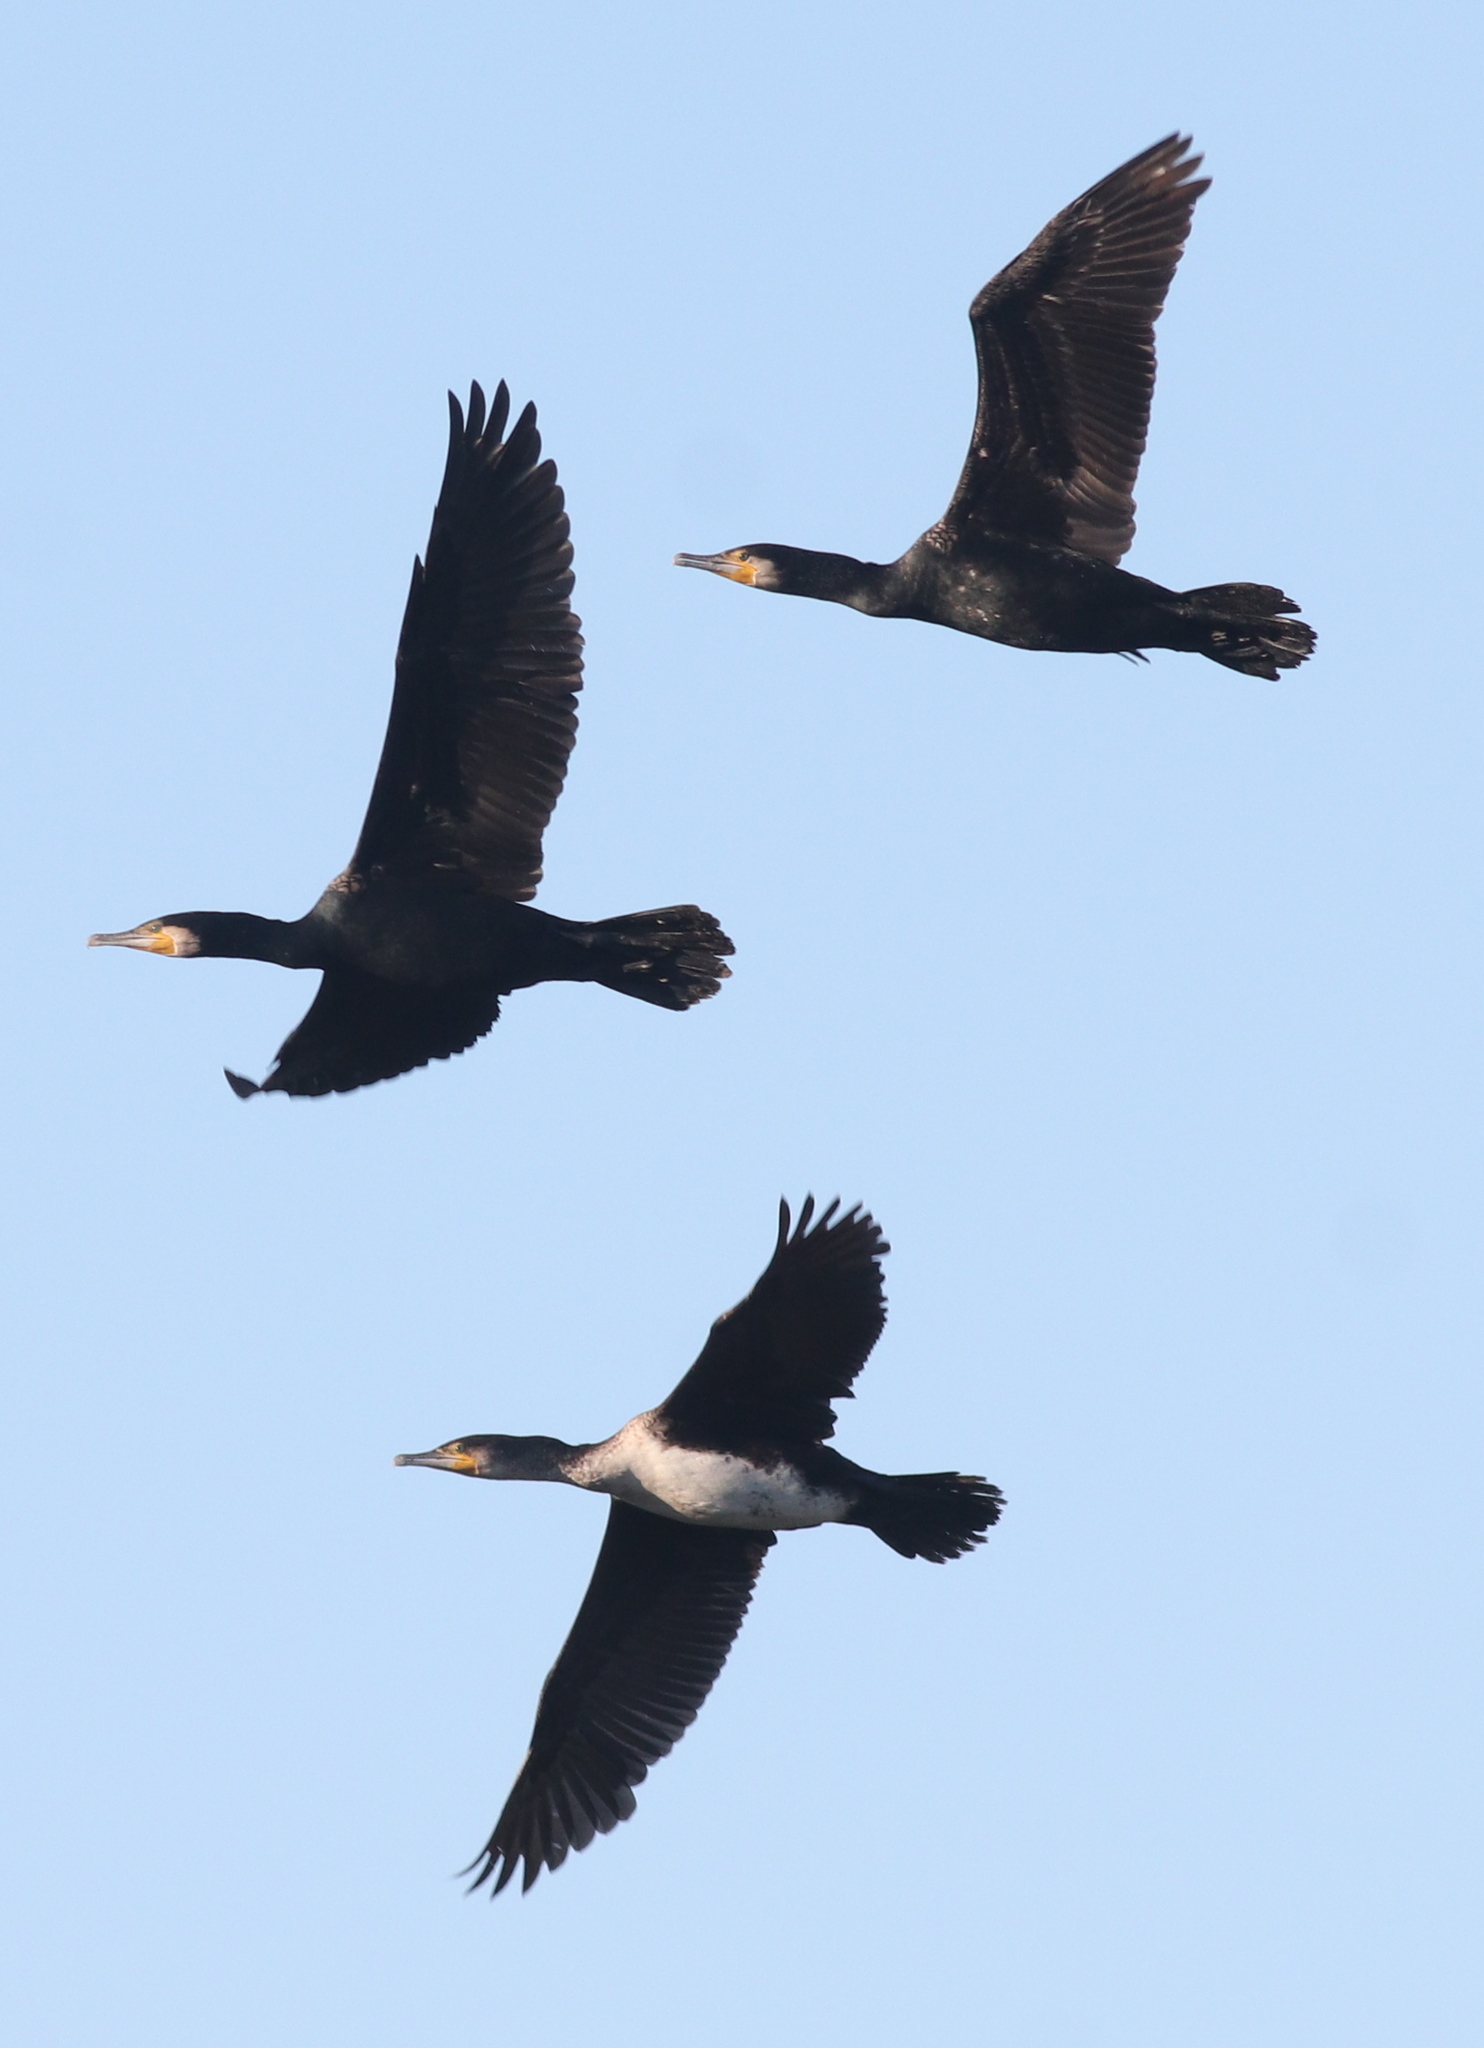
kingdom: Animalia
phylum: Chordata
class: Aves
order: Suliformes
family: Phalacrocoracidae
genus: Phalacrocorax
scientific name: Phalacrocorax carbo
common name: Great cormorant
